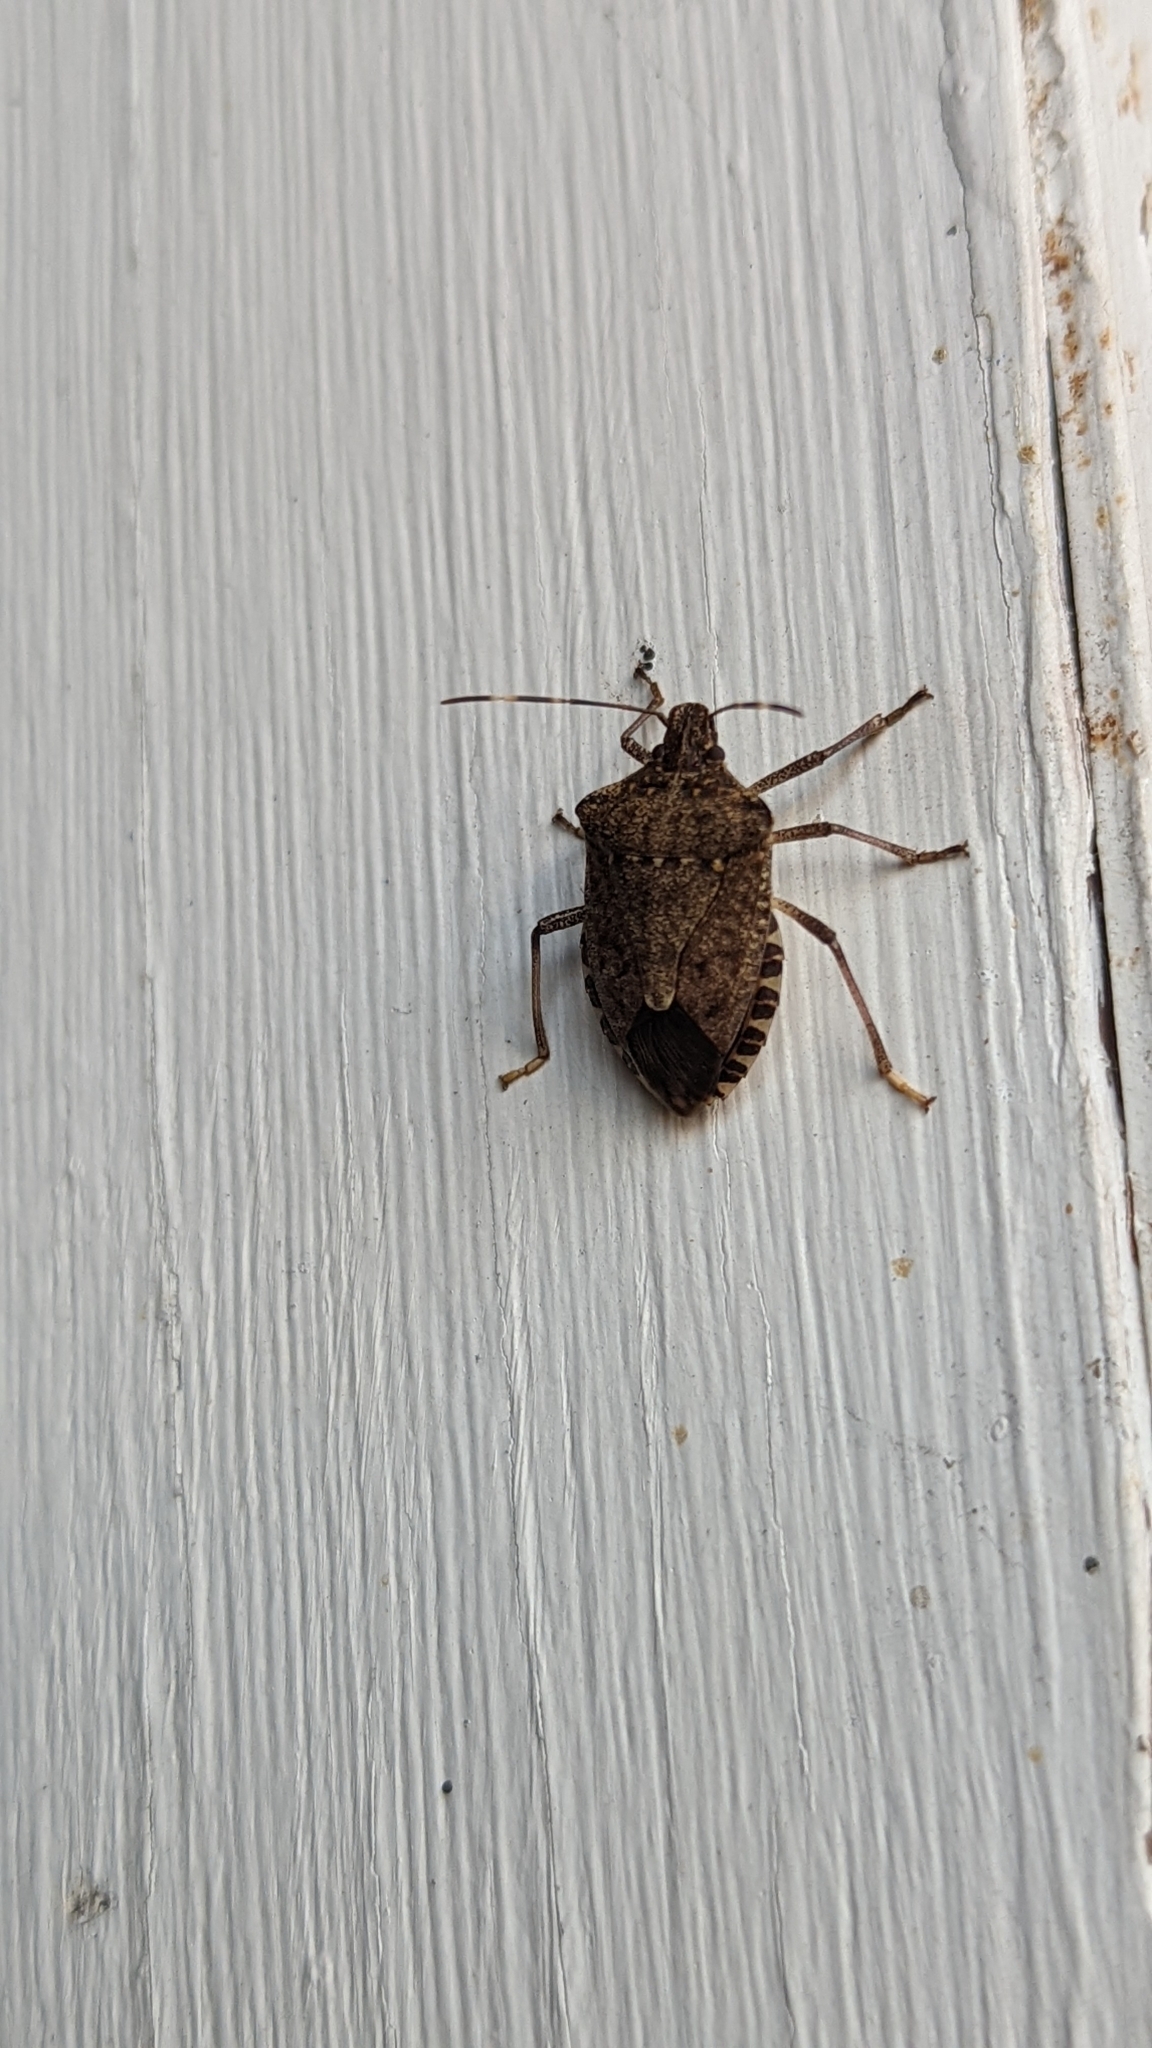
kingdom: Animalia
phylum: Arthropoda
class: Insecta
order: Hemiptera
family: Pentatomidae
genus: Halyomorpha
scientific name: Halyomorpha halys
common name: Brown marmorated stink bug
